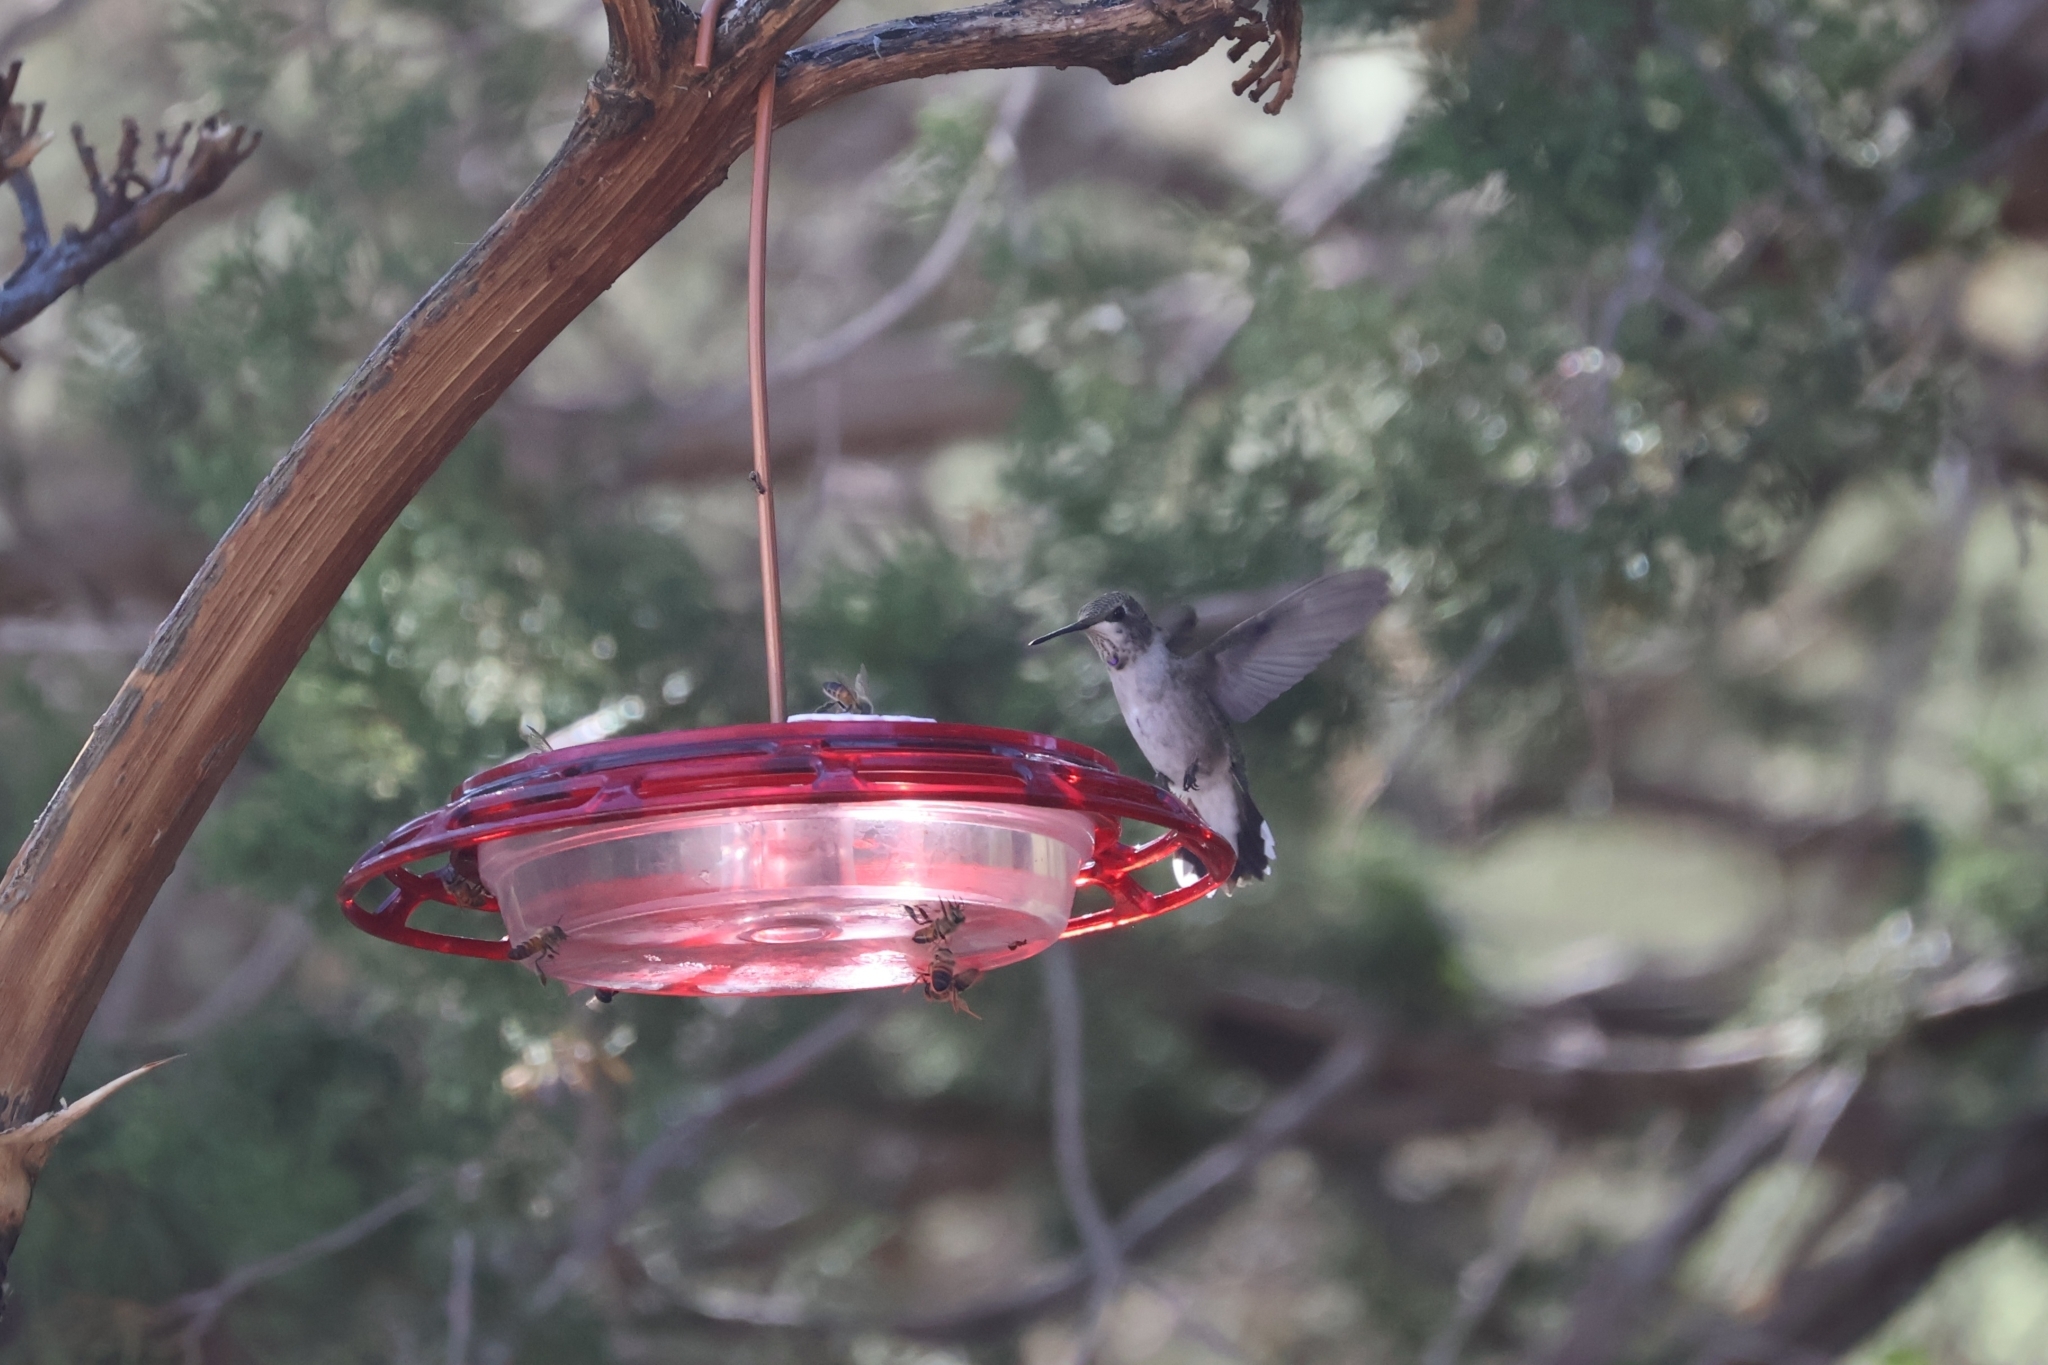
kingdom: Animalia
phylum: Chordata
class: Aves
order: Apodiformes
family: Trochilidae
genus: Archilochus
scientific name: Archilochus alexandri
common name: Black-chinned hummingbird
